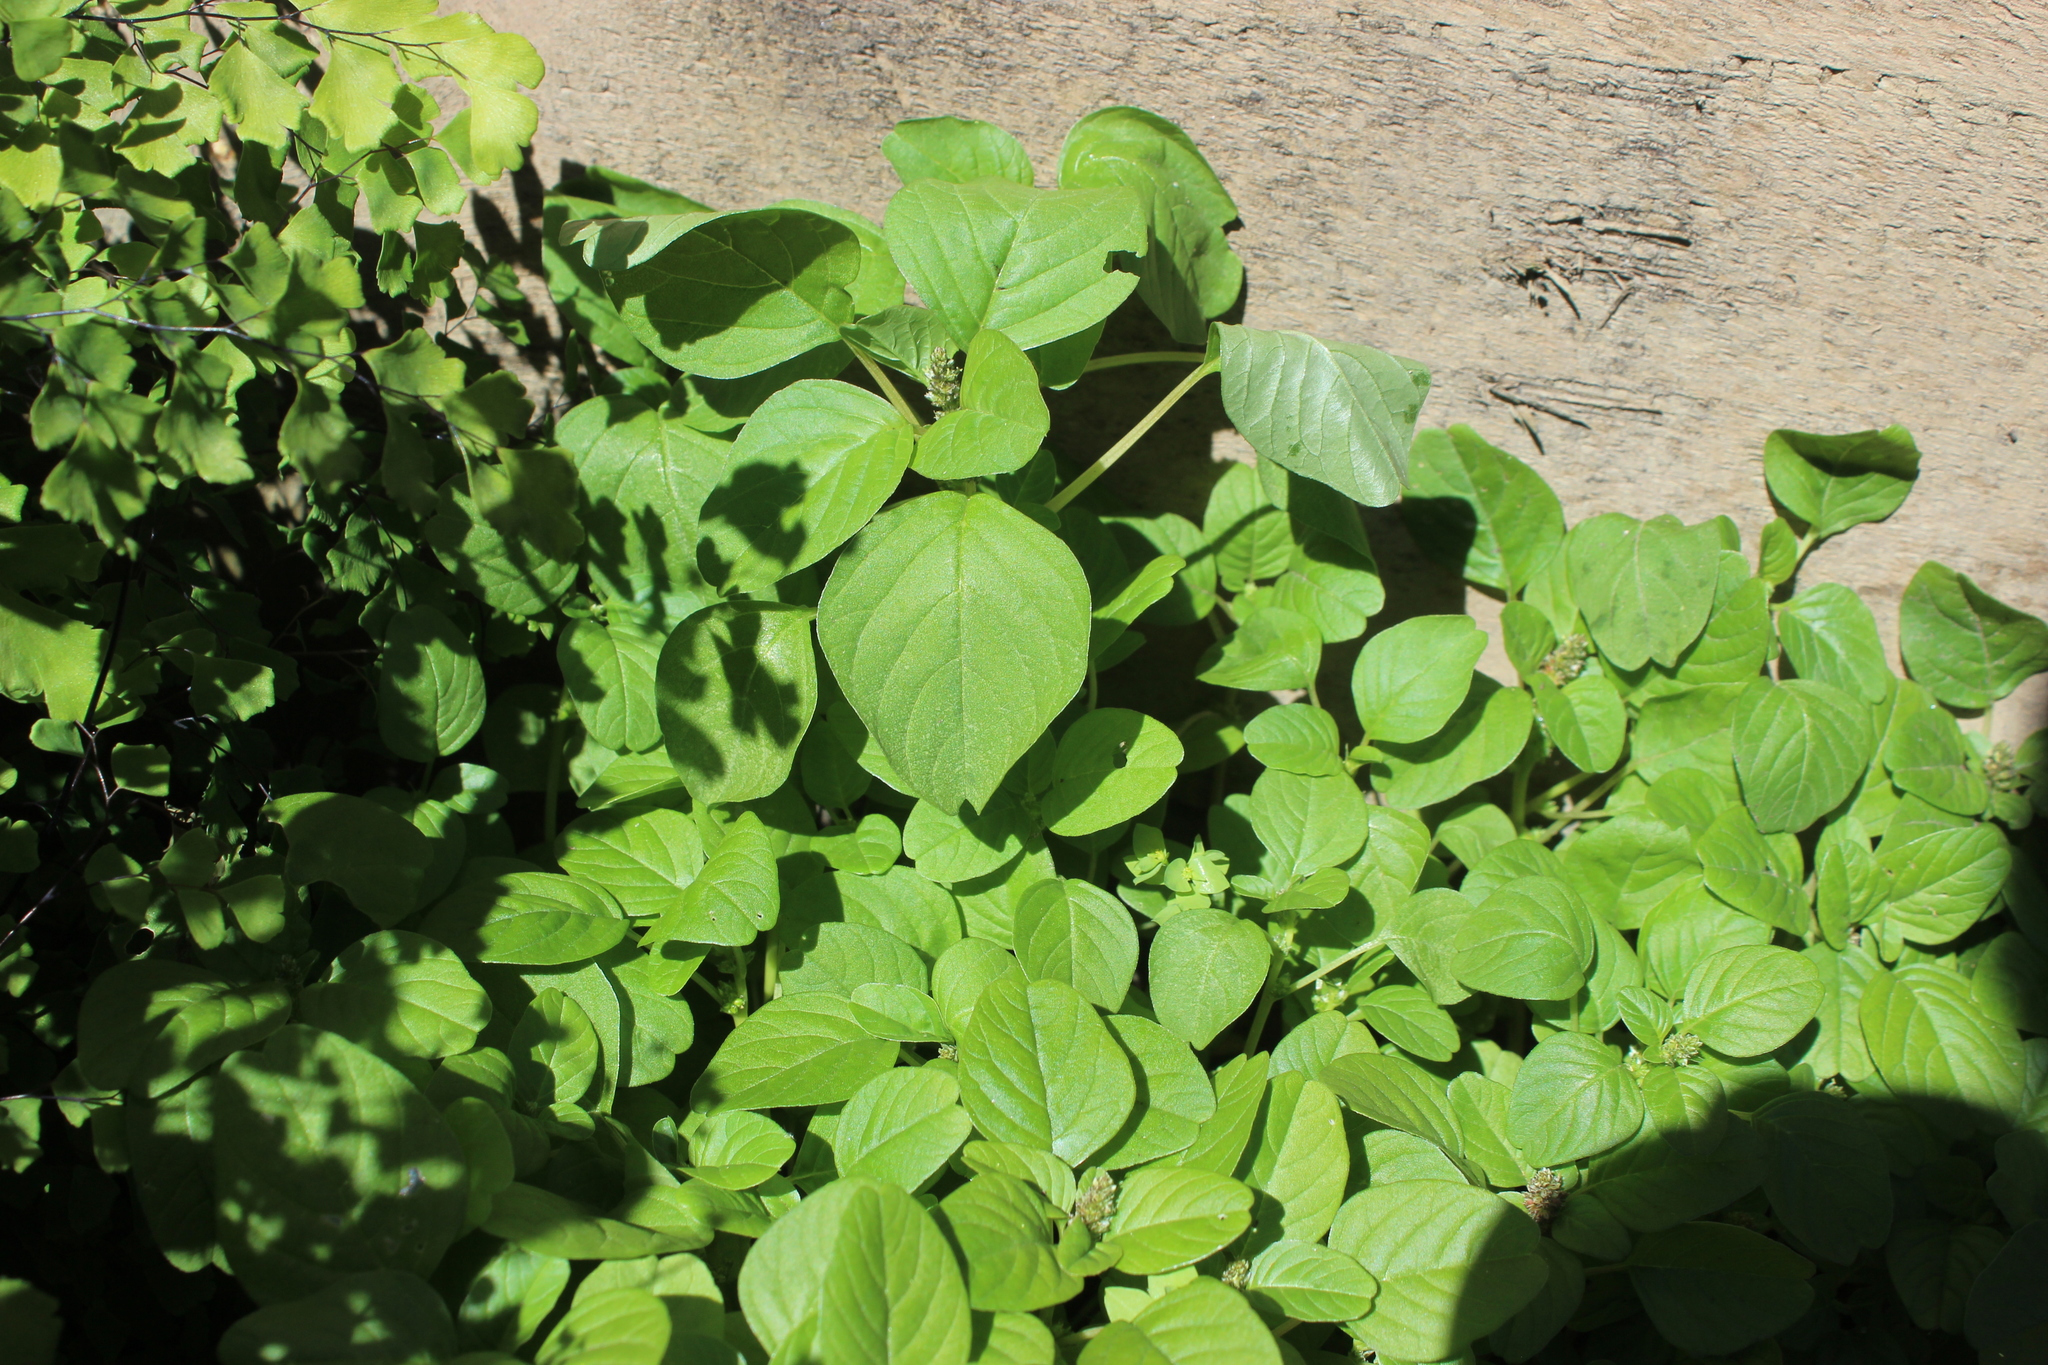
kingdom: Plantae
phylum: Tracheophyta
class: Magnoliopsida
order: Caryophyllales
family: Amaranthaceae
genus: Amaranthus
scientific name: Amaranthus blitum
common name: Purple amaranth
